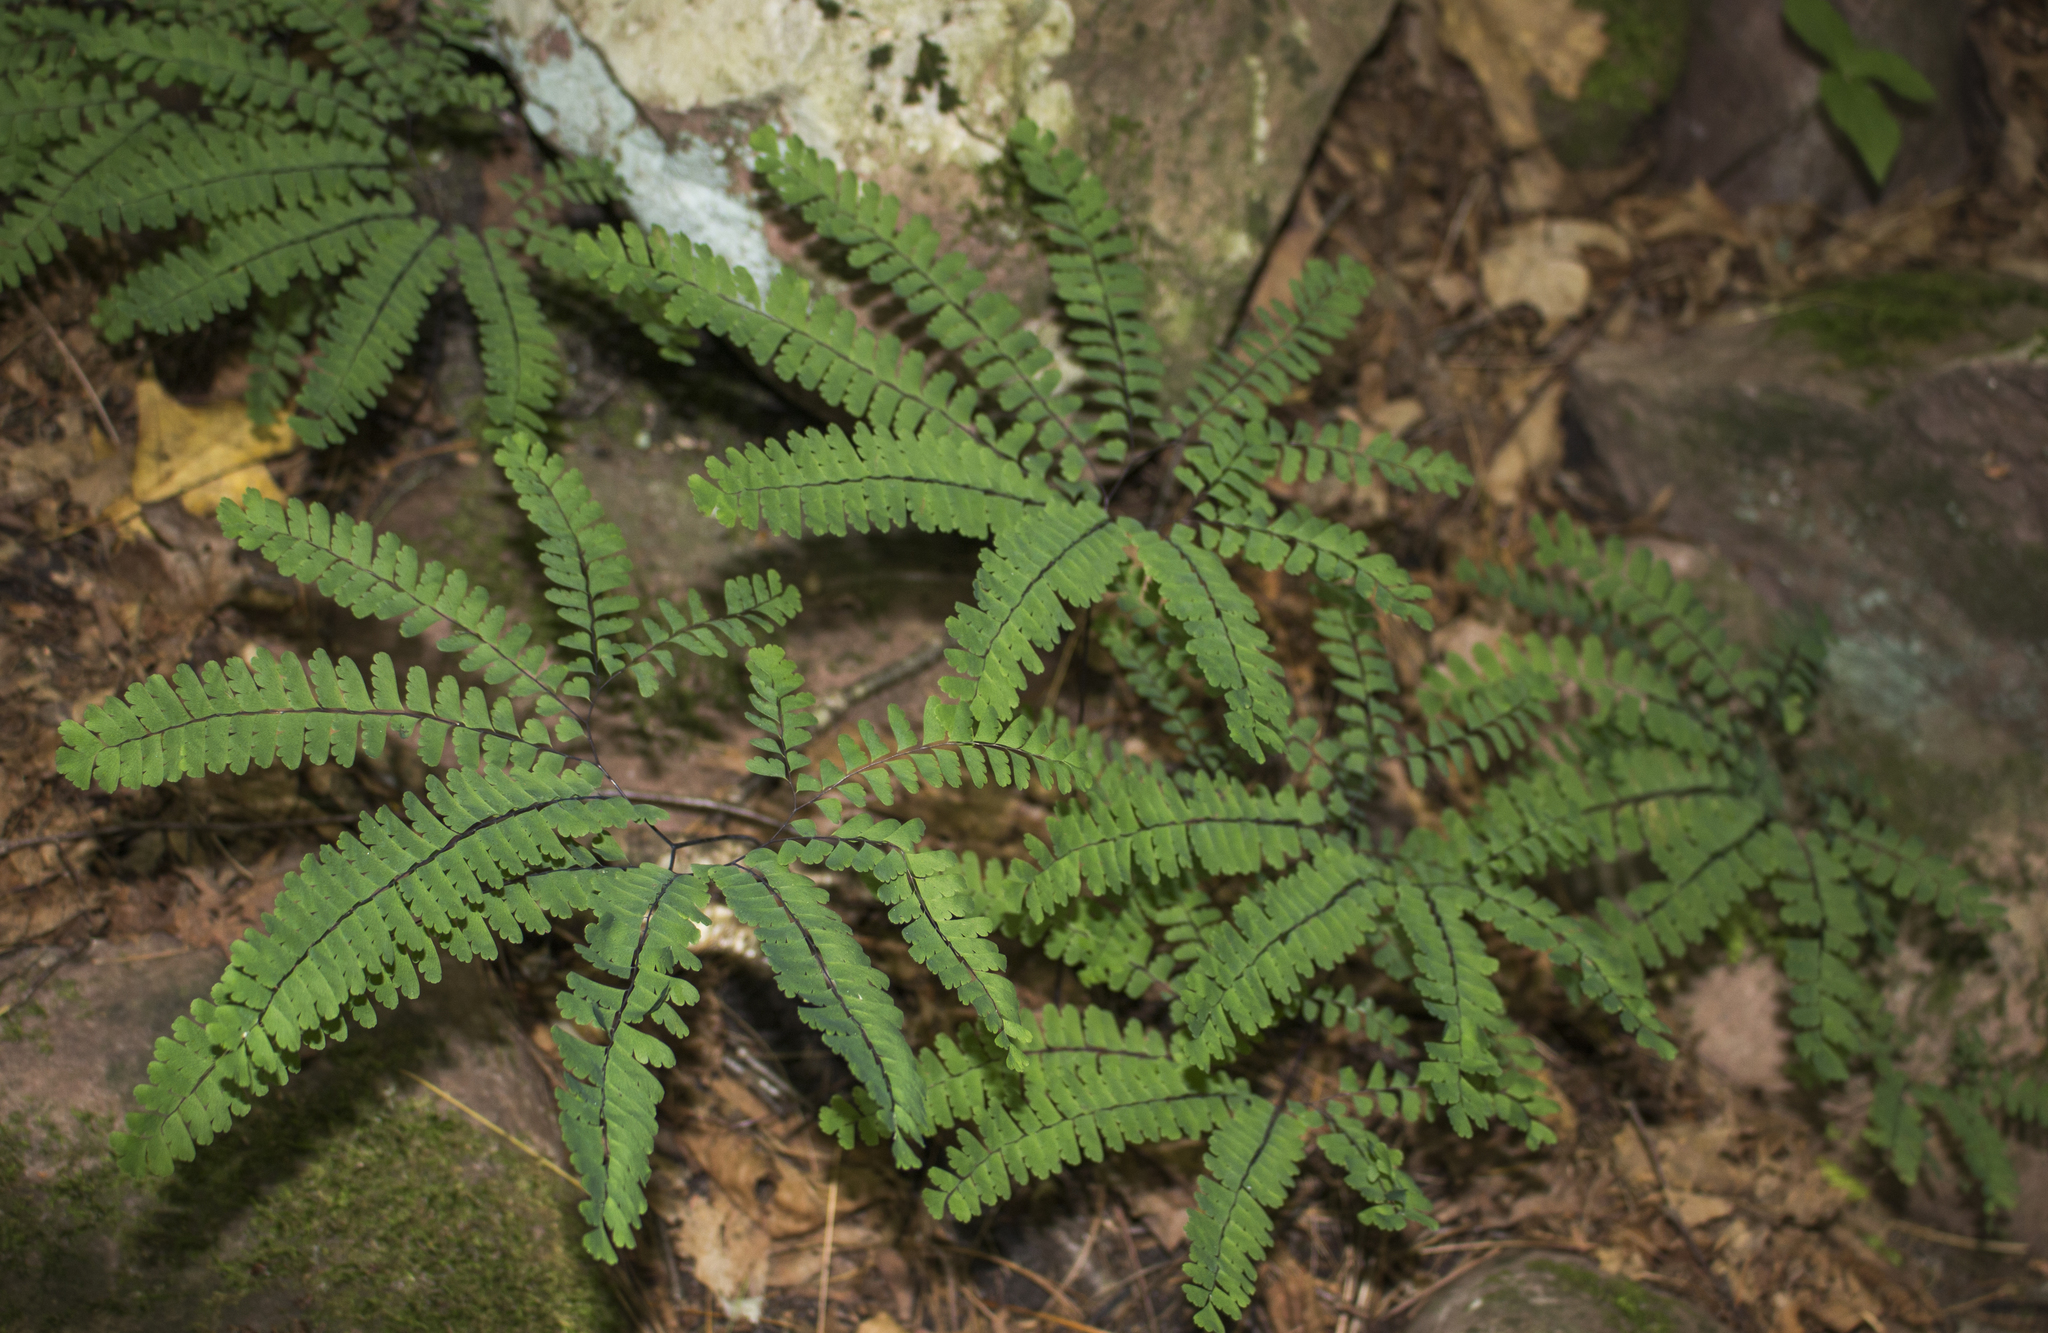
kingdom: Plantae
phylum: Tracheophyta
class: Polypodiopsida
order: Polypodiales
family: Pteridaceae
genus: Adiantum
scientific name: Adiantum pedatum
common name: Five-finger fern
